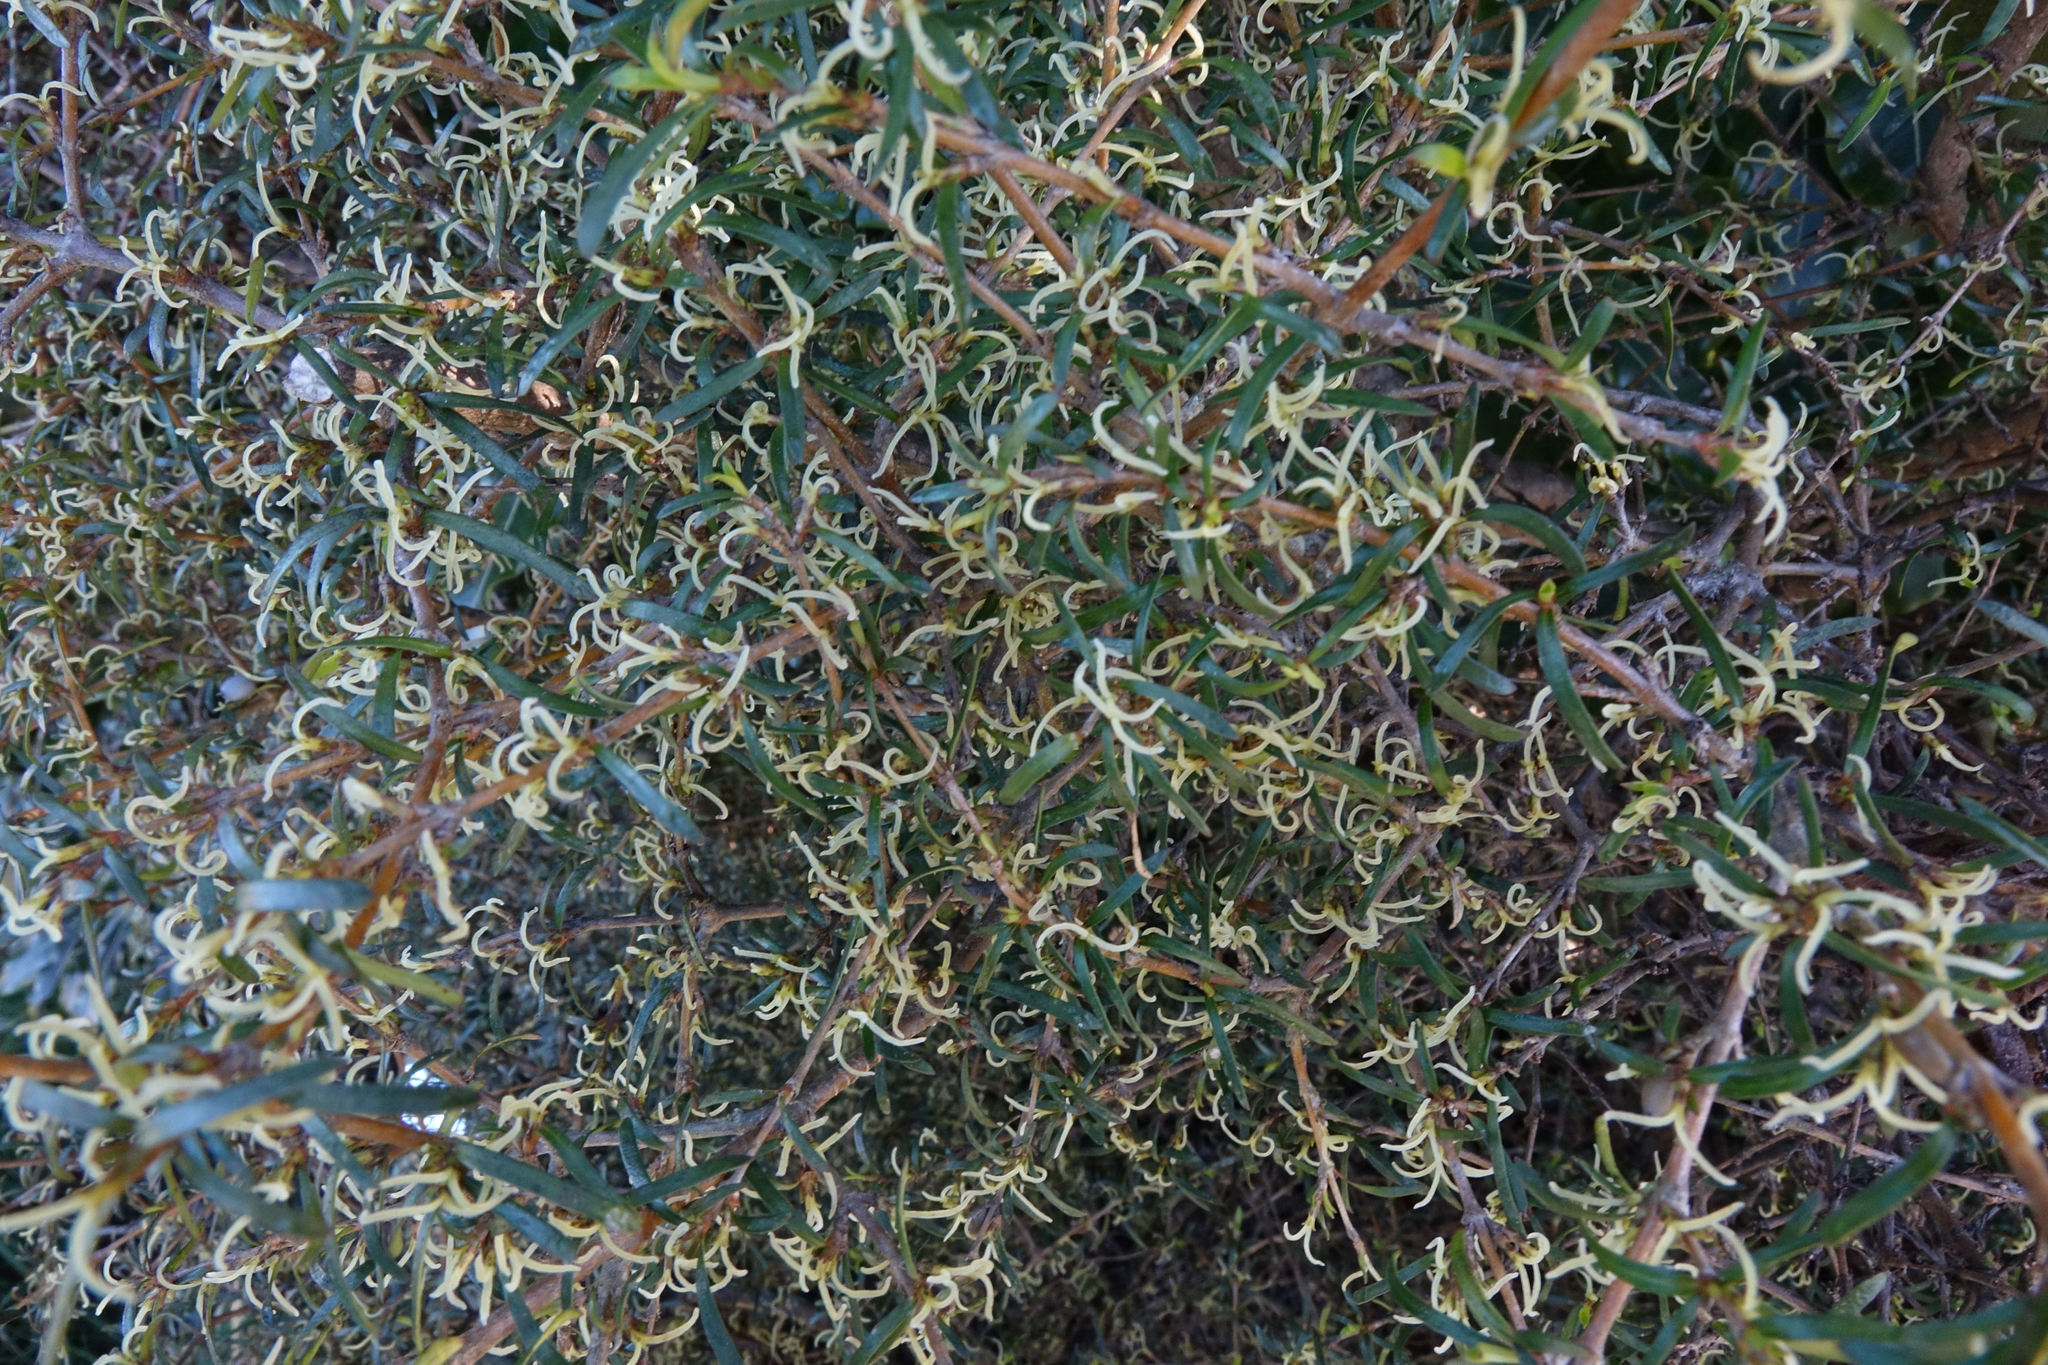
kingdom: Plantae
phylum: Tracheophyta
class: Magnoliopsida
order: Gentianales
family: Rubiaceae
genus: Coprosma
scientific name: Coprosma rugosa
